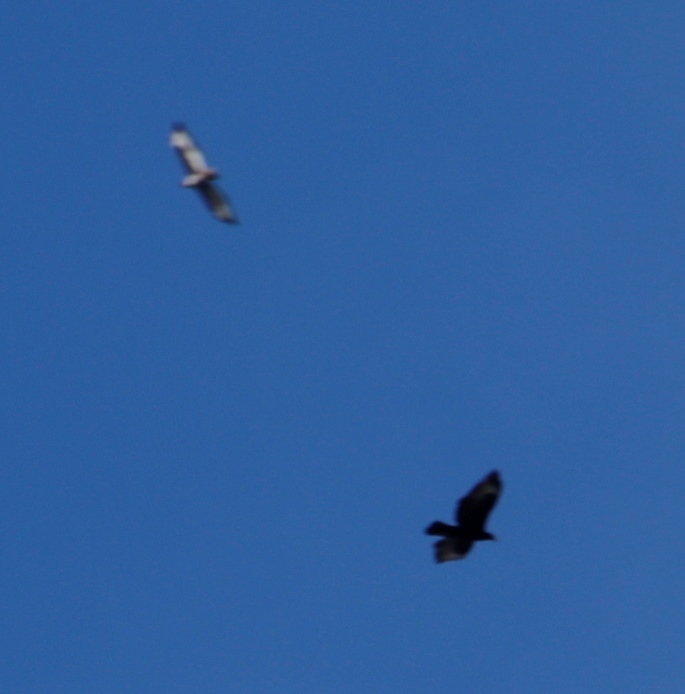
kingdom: Animalia
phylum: Chordata
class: Aves
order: Accipitriformes
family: Accipitridae
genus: Buteo
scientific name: Buteo rufofuscus
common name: Jackal buzzard
